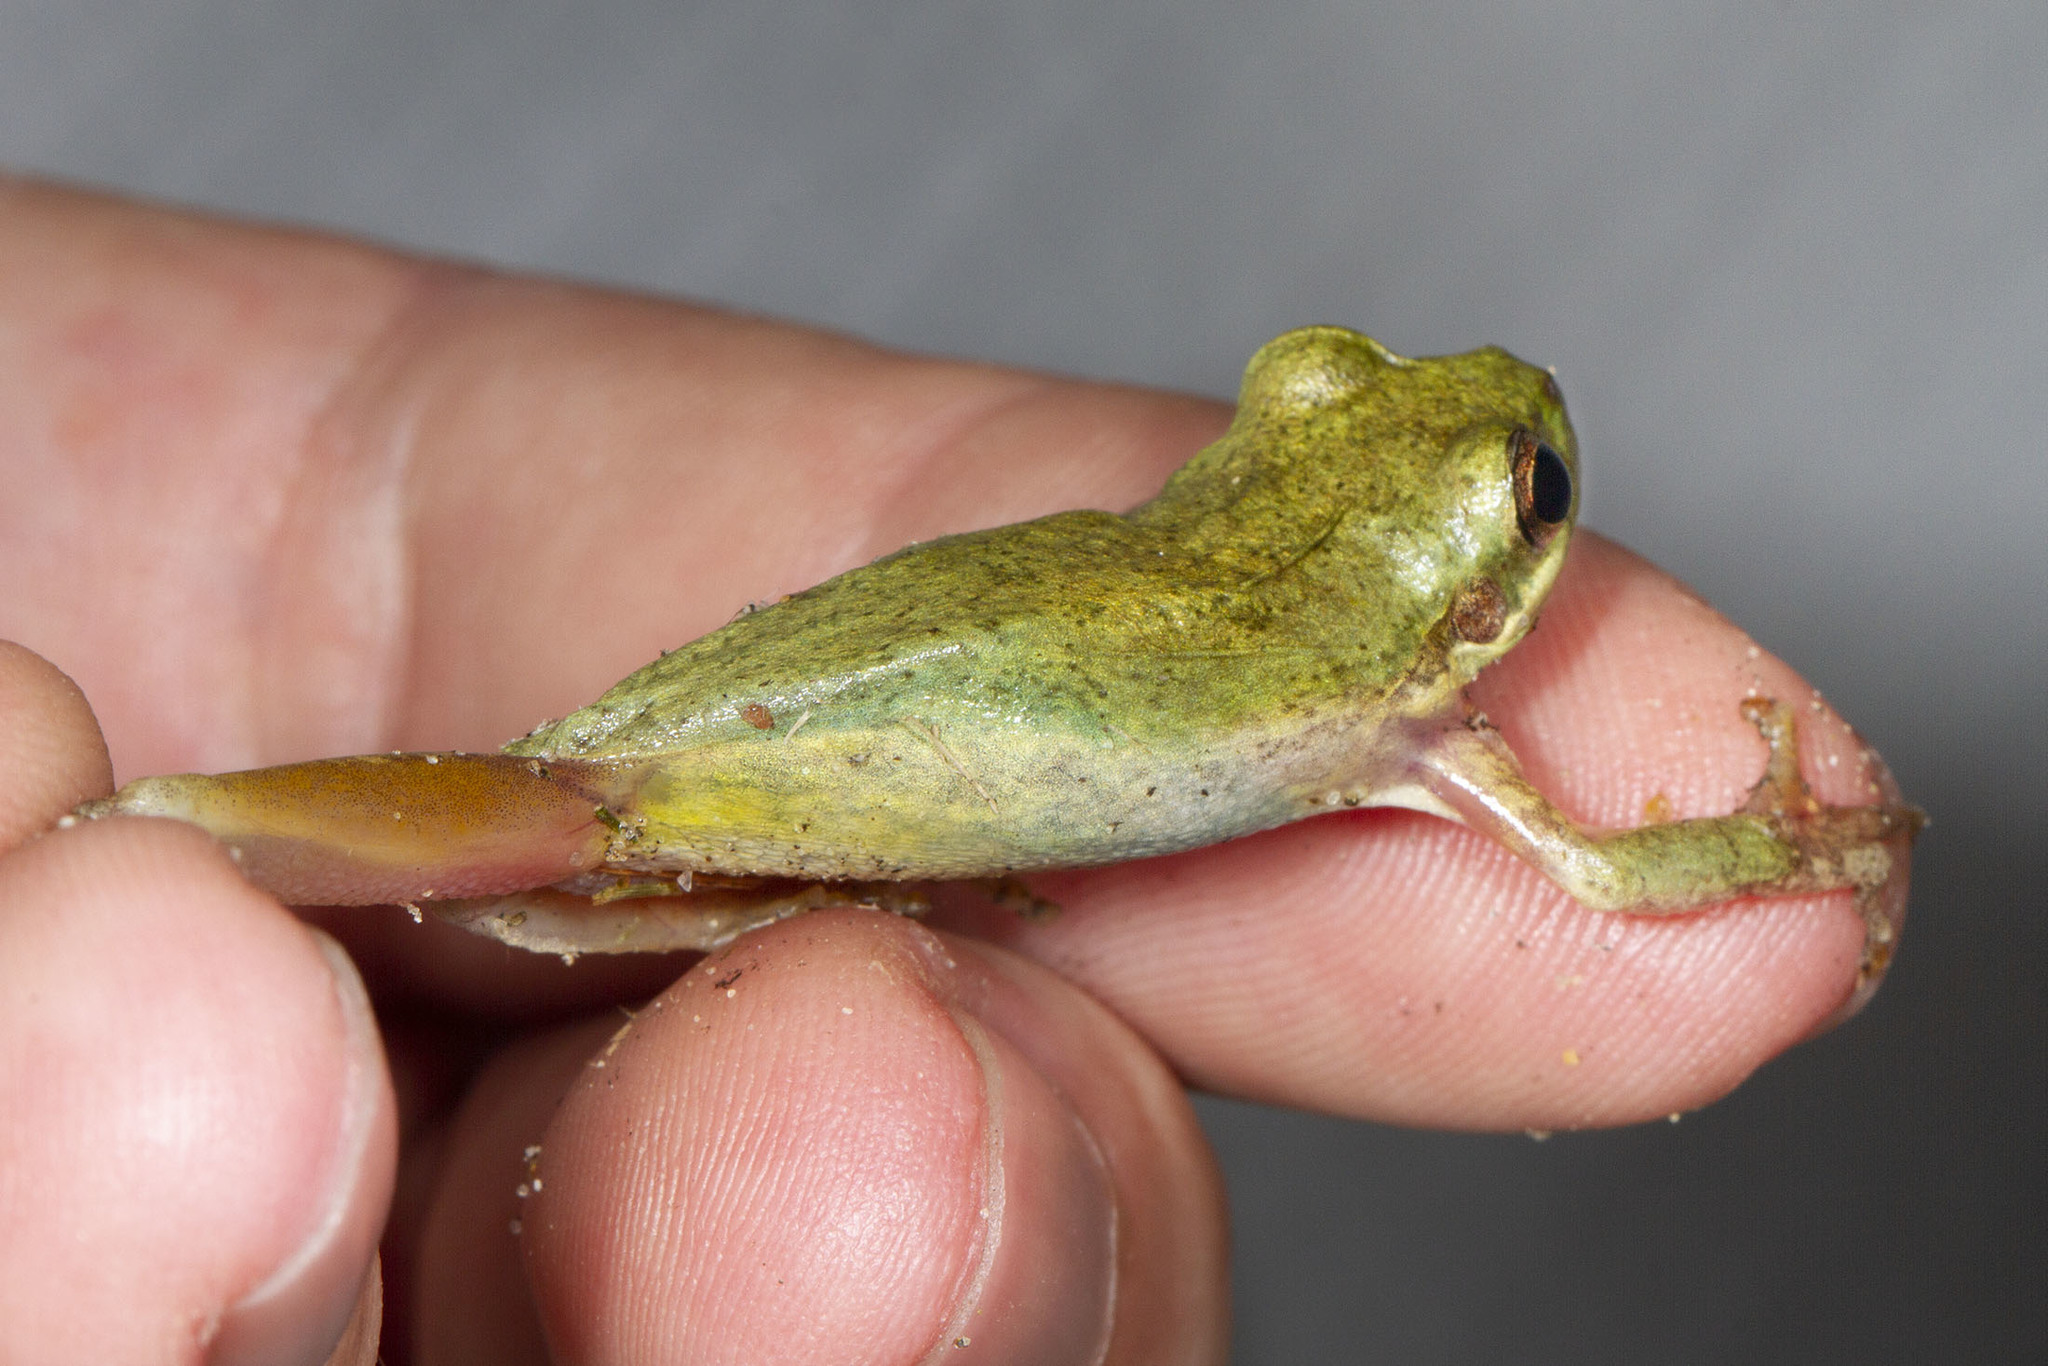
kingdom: Animalia
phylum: Chordata
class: Amphibia
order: Anura
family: Hylidae
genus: Dryophytes
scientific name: Dryophytes squirellus
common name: Squirrel treefrog
